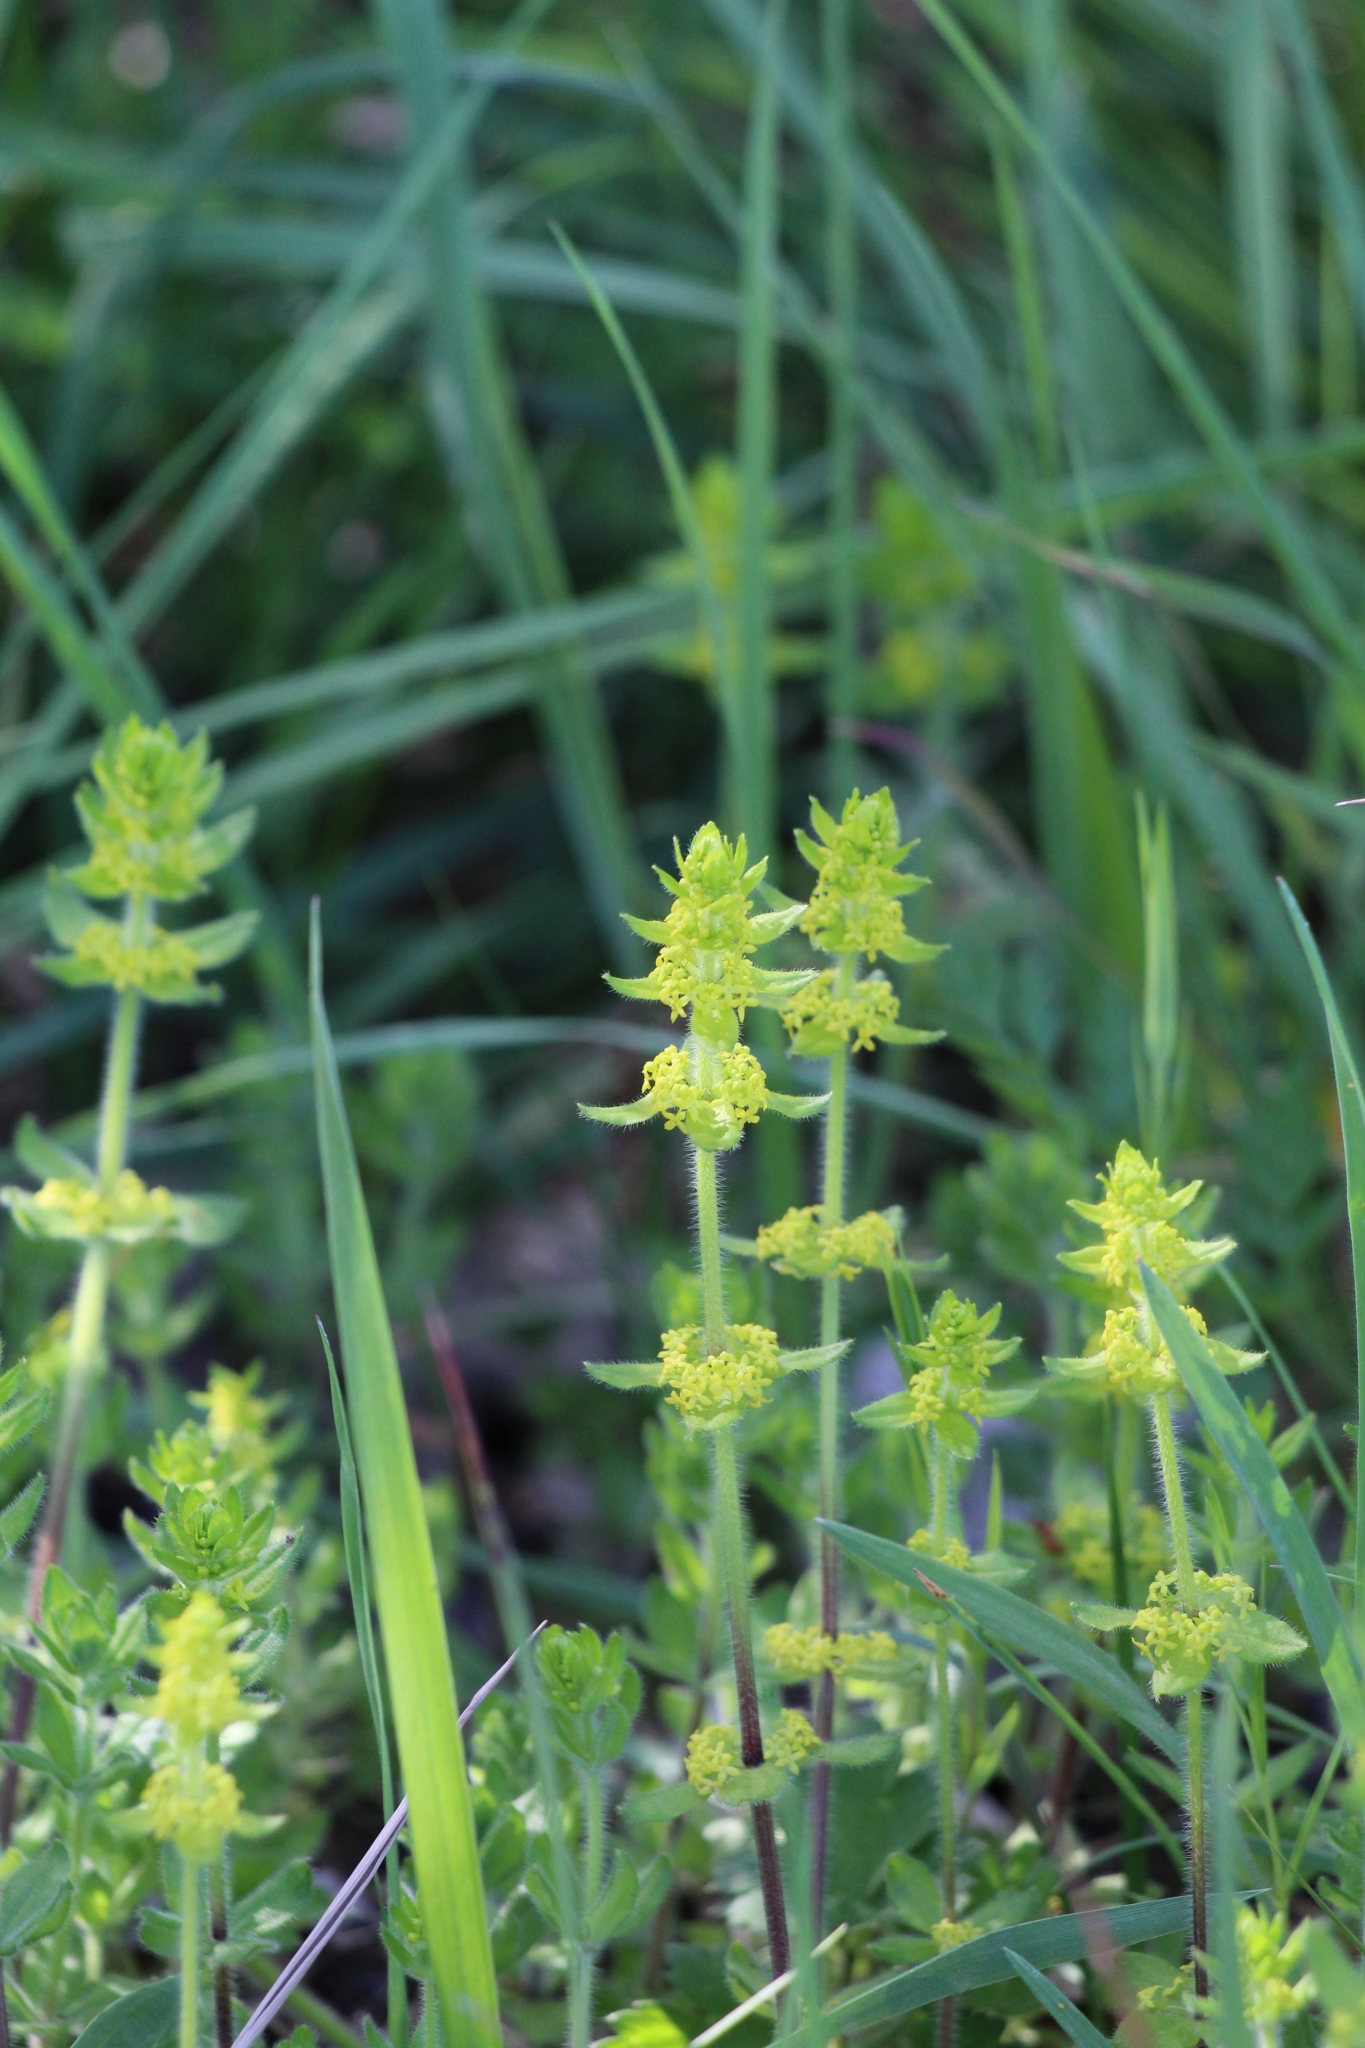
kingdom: Plantae
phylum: Tracheophyta
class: Magnoliopsida
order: Gentianales
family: Rubiaceae
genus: Cruciata
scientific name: Cruciata laevipes
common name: Crosswort
